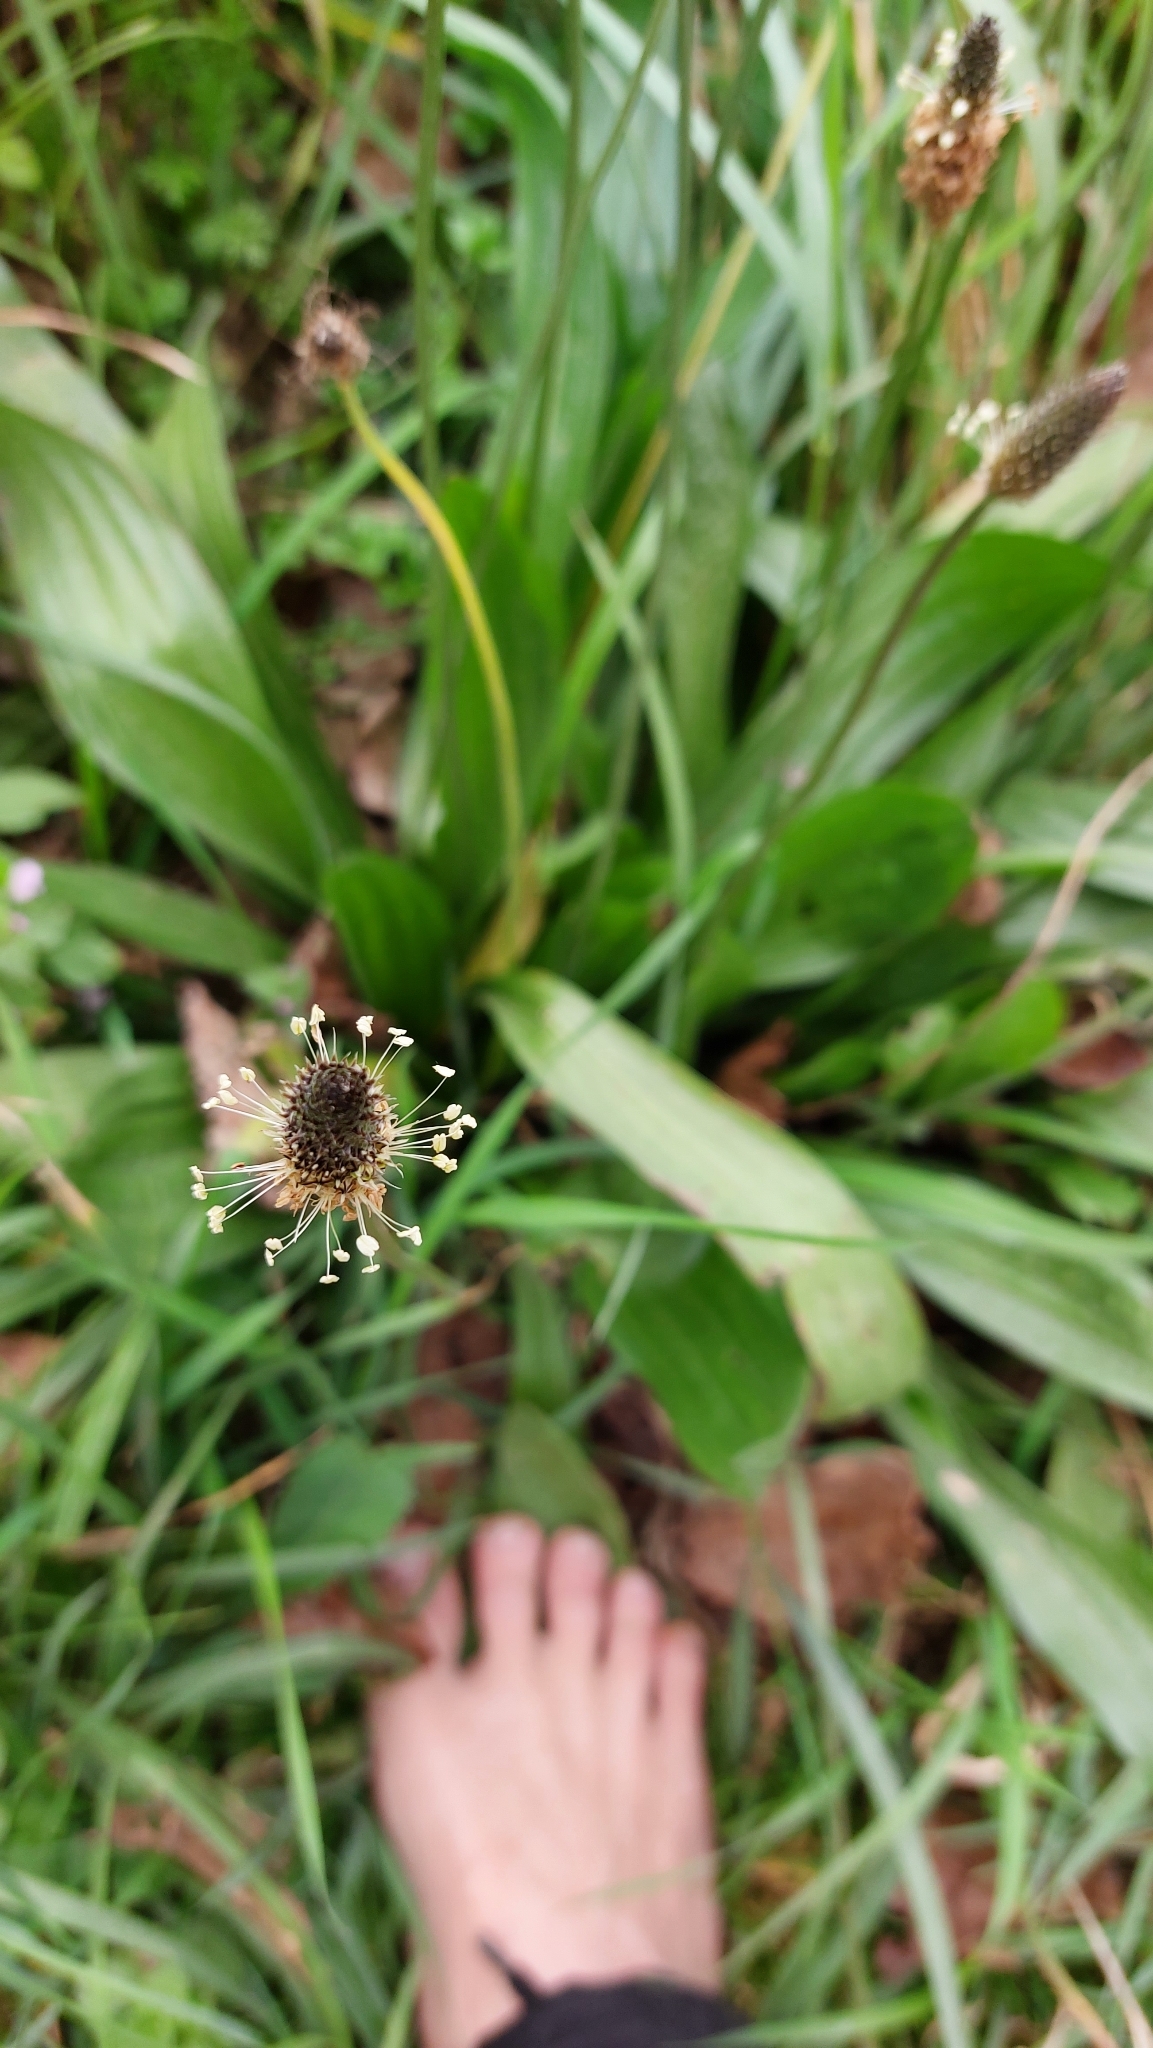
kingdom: Plantae
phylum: Tracheophyta
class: Magnoliopsida
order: Lamiales
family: Plantaginaceae
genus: Plantago
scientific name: Plantago lanceolata
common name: Ribwort plantain
